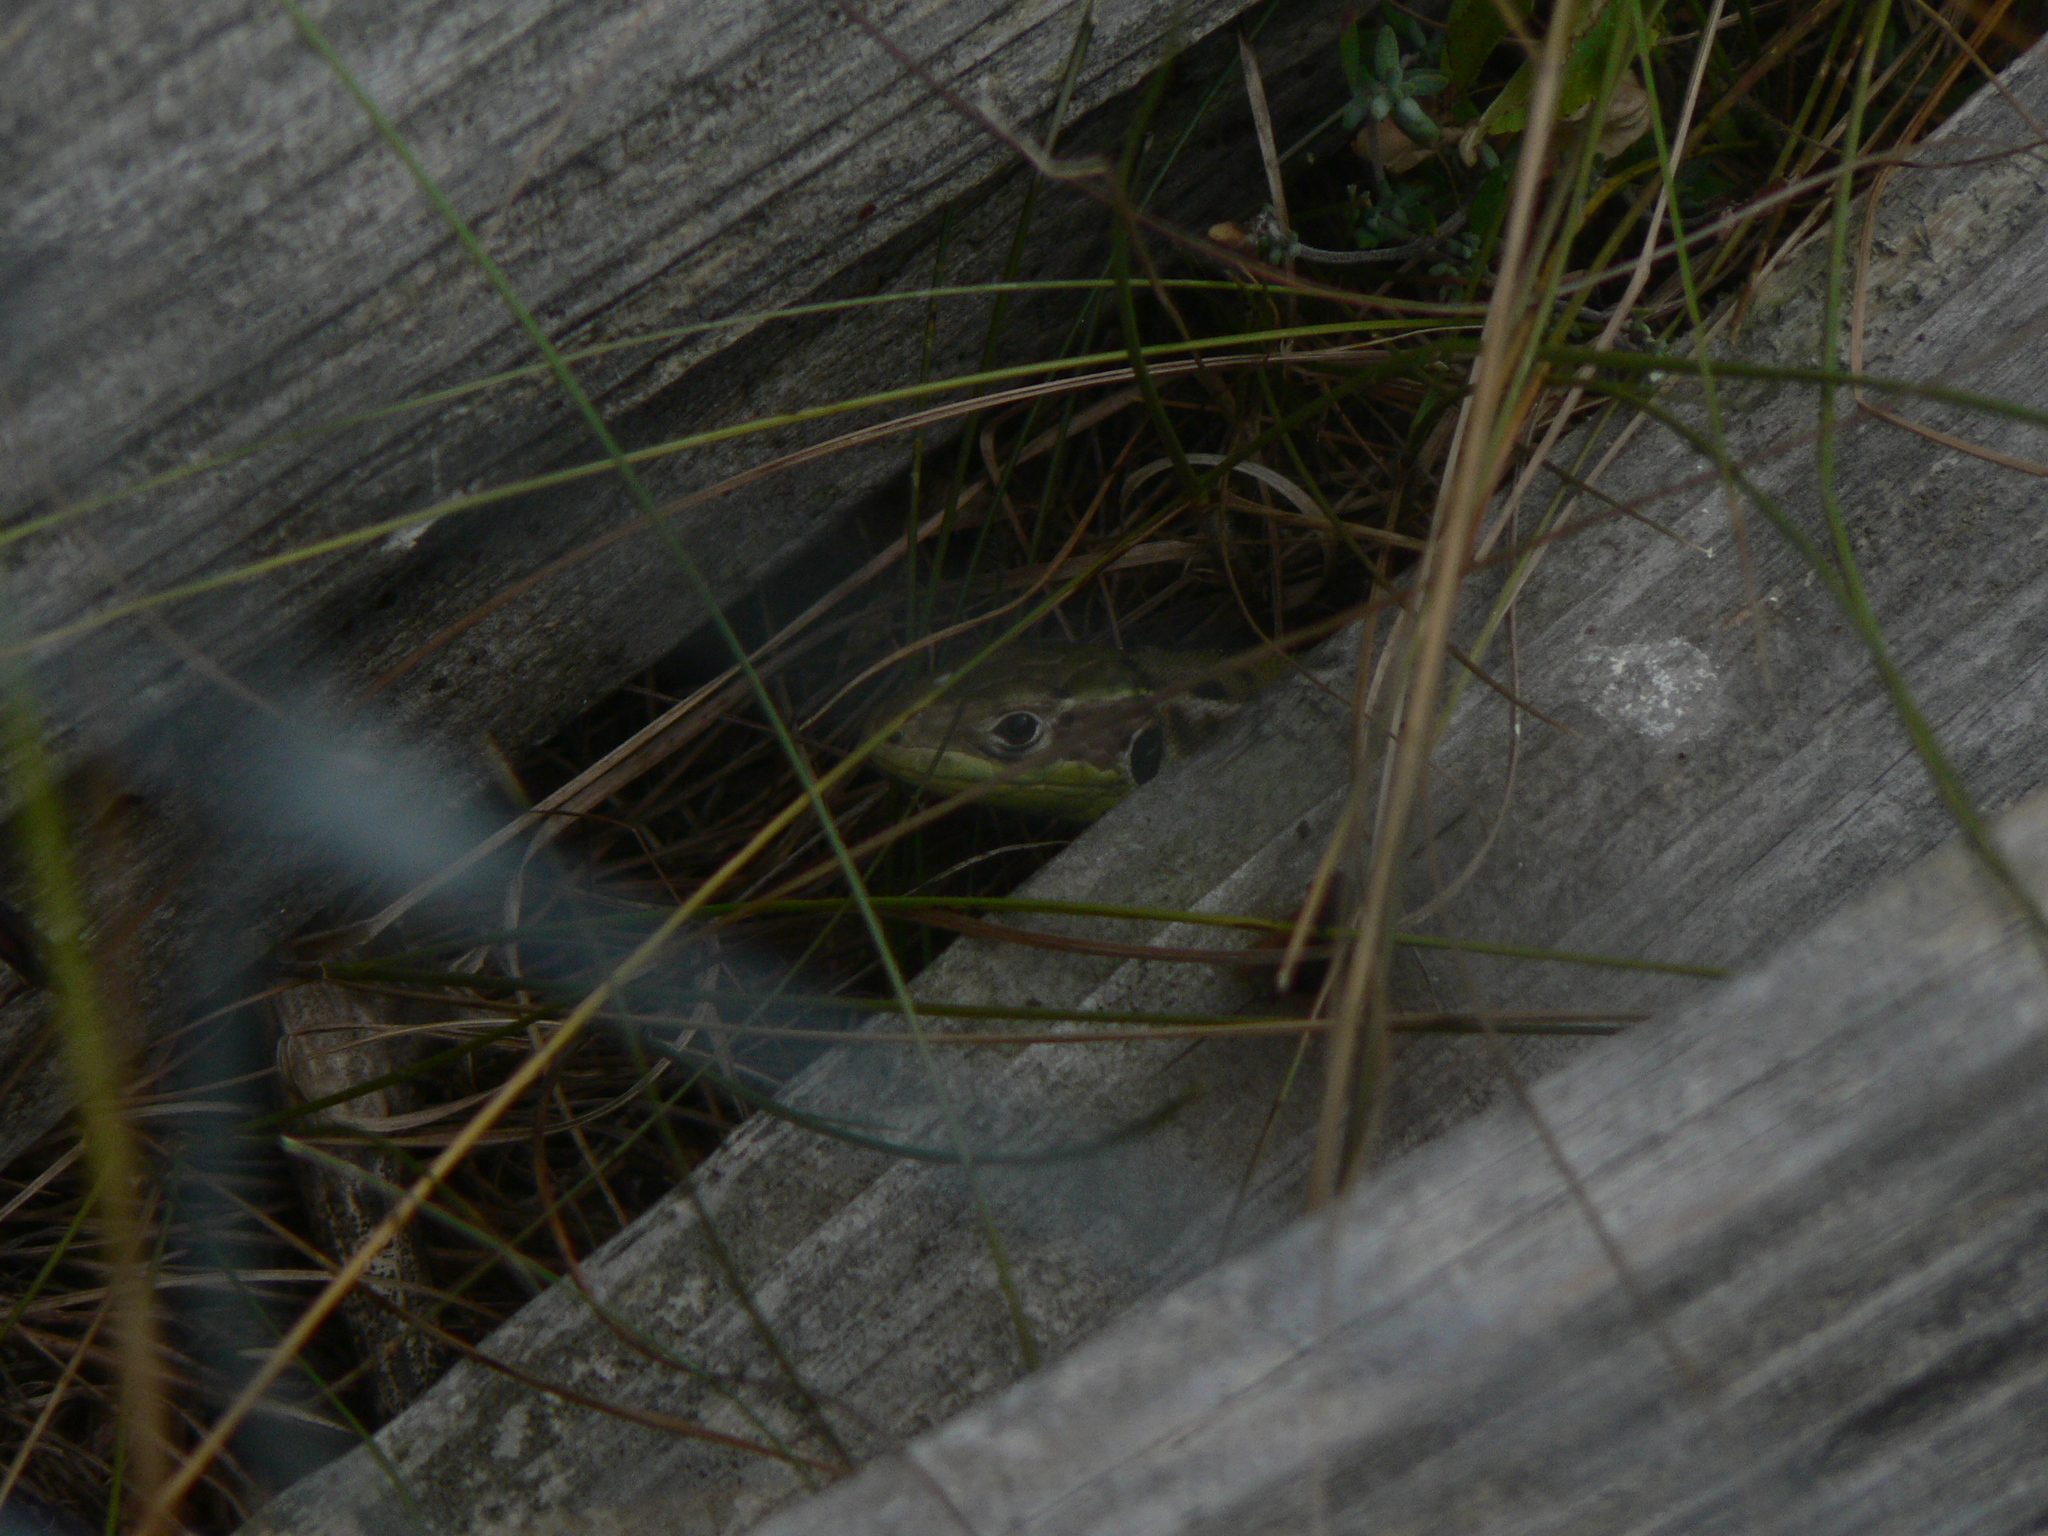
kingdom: Animalia
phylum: Chordata
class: Squamata
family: Lacertidae
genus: Lacerta
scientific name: Lacerta bilineata
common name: Western green lizard
